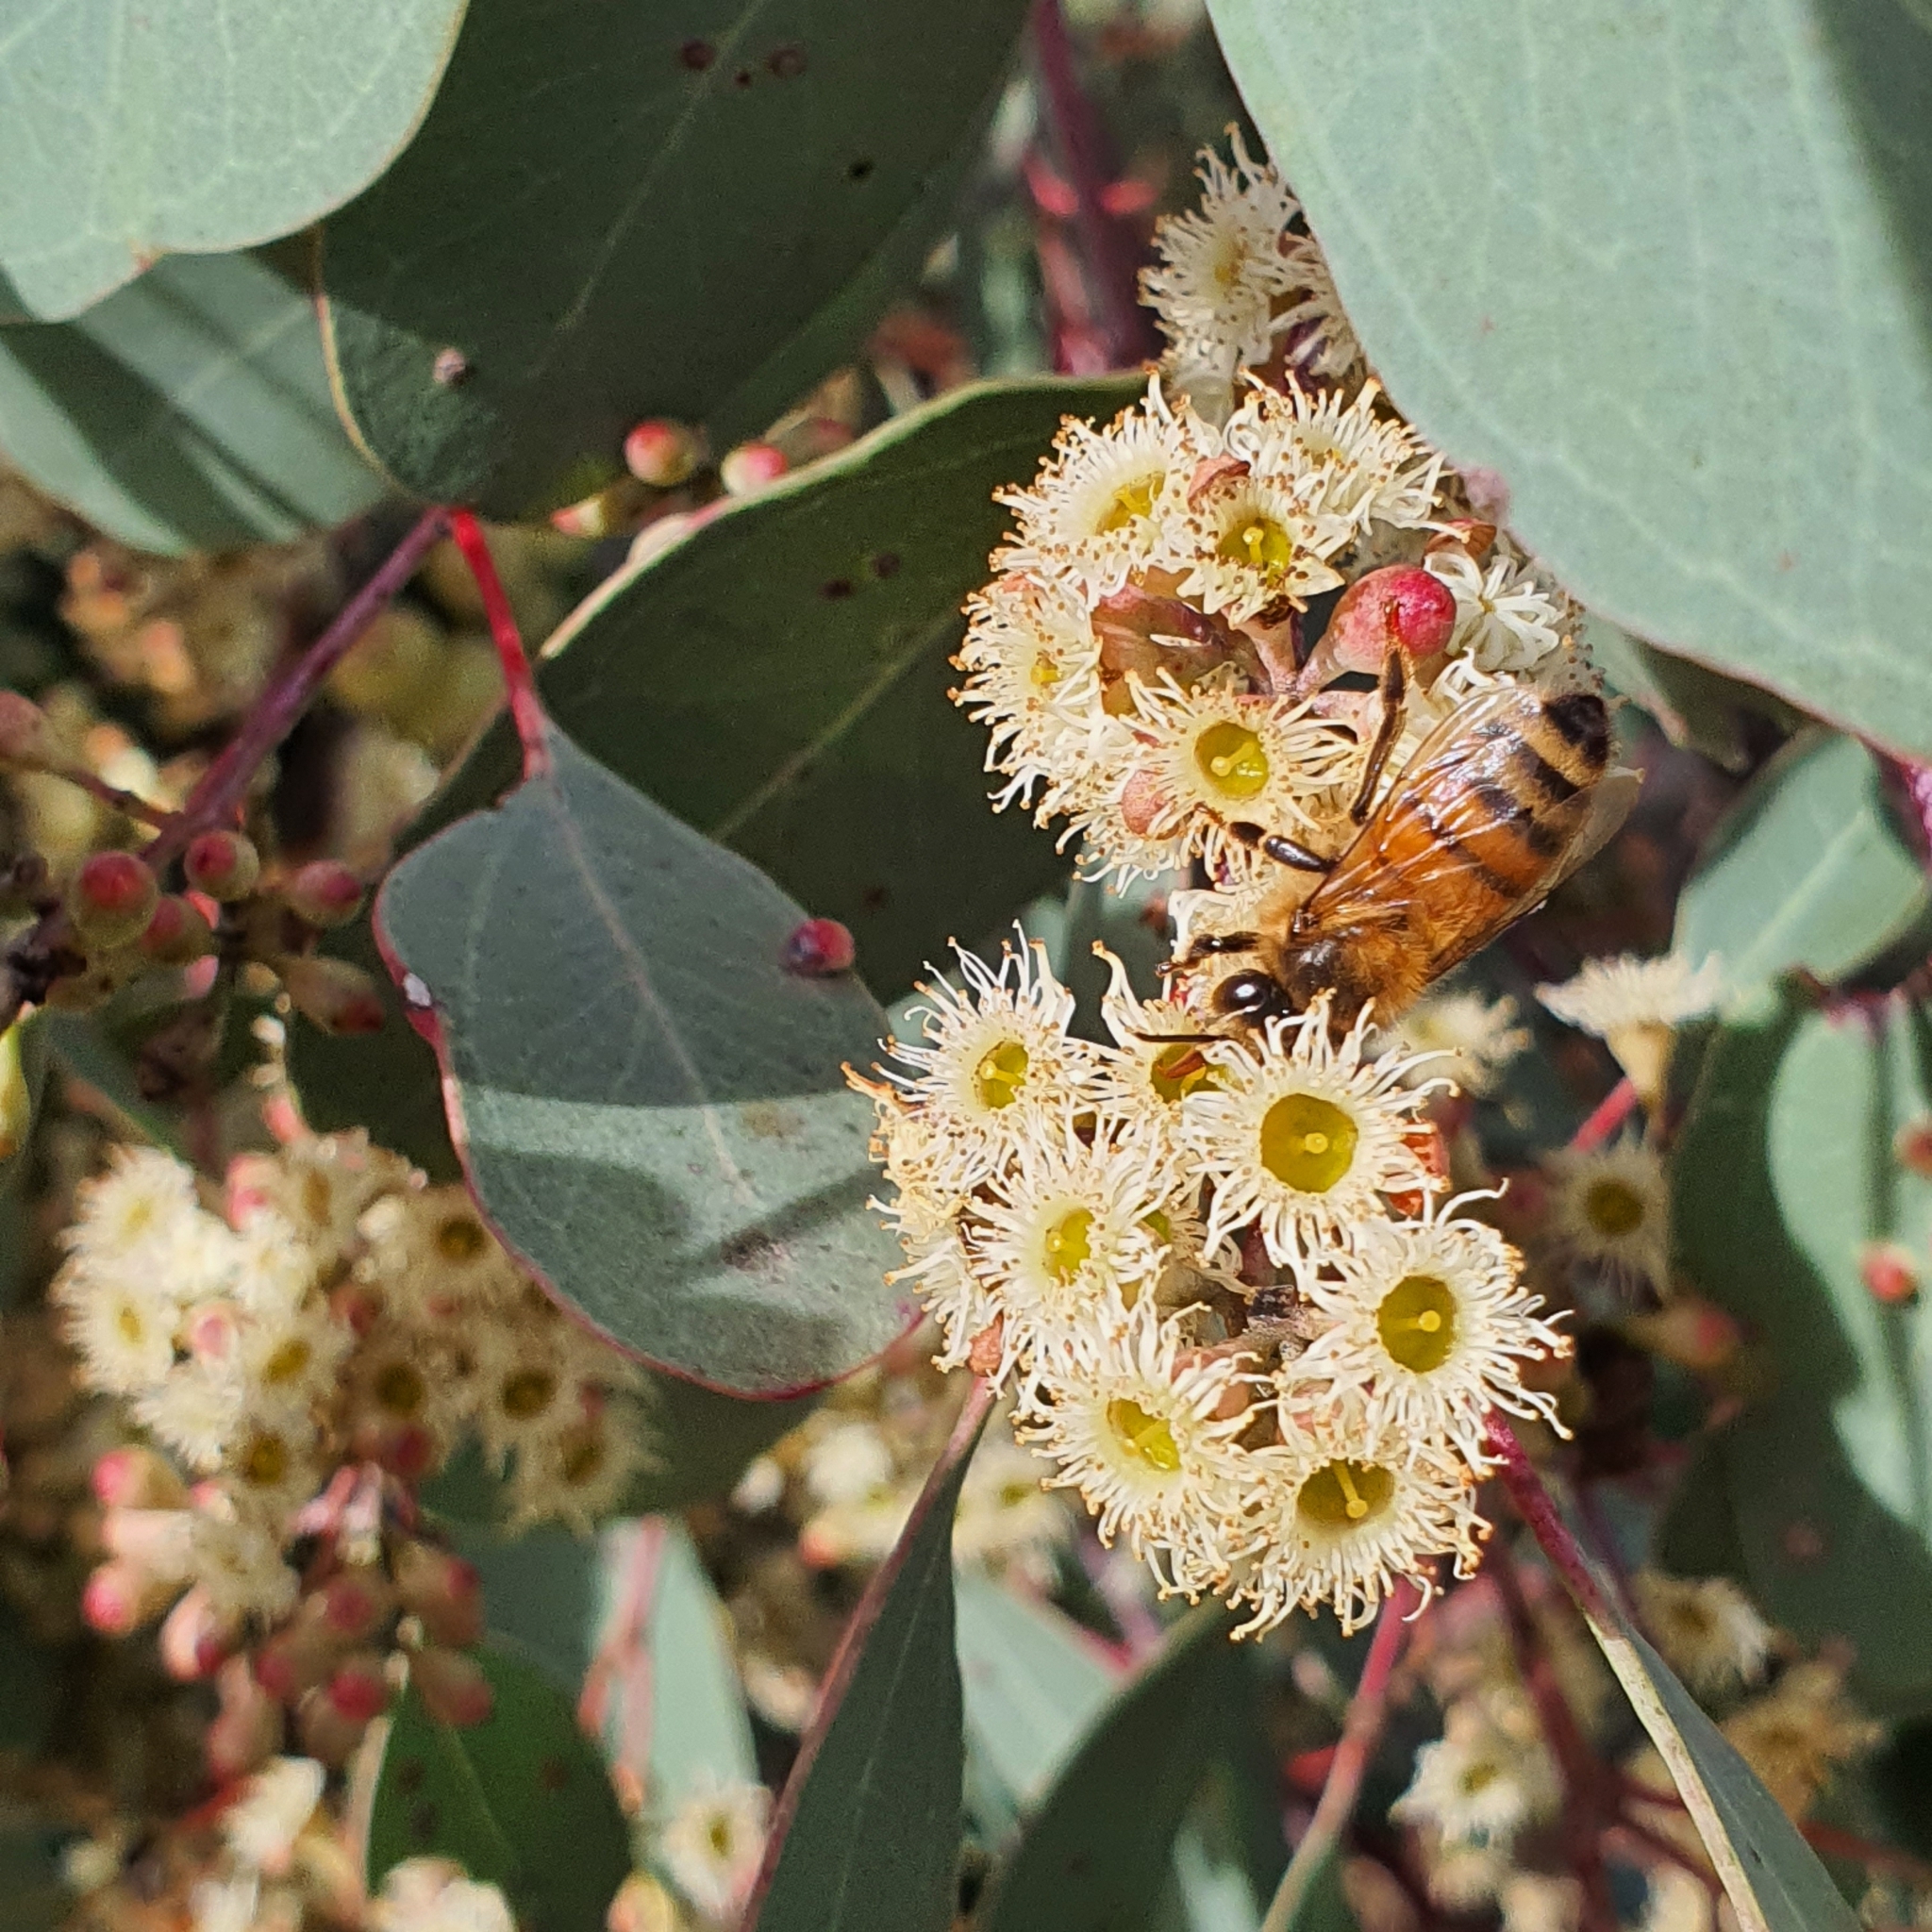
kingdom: Animalia
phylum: Arthropoda
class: Insecta
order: Hymenoptera
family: Apidae
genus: Apis
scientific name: Apis mellifera
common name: Honey bee
